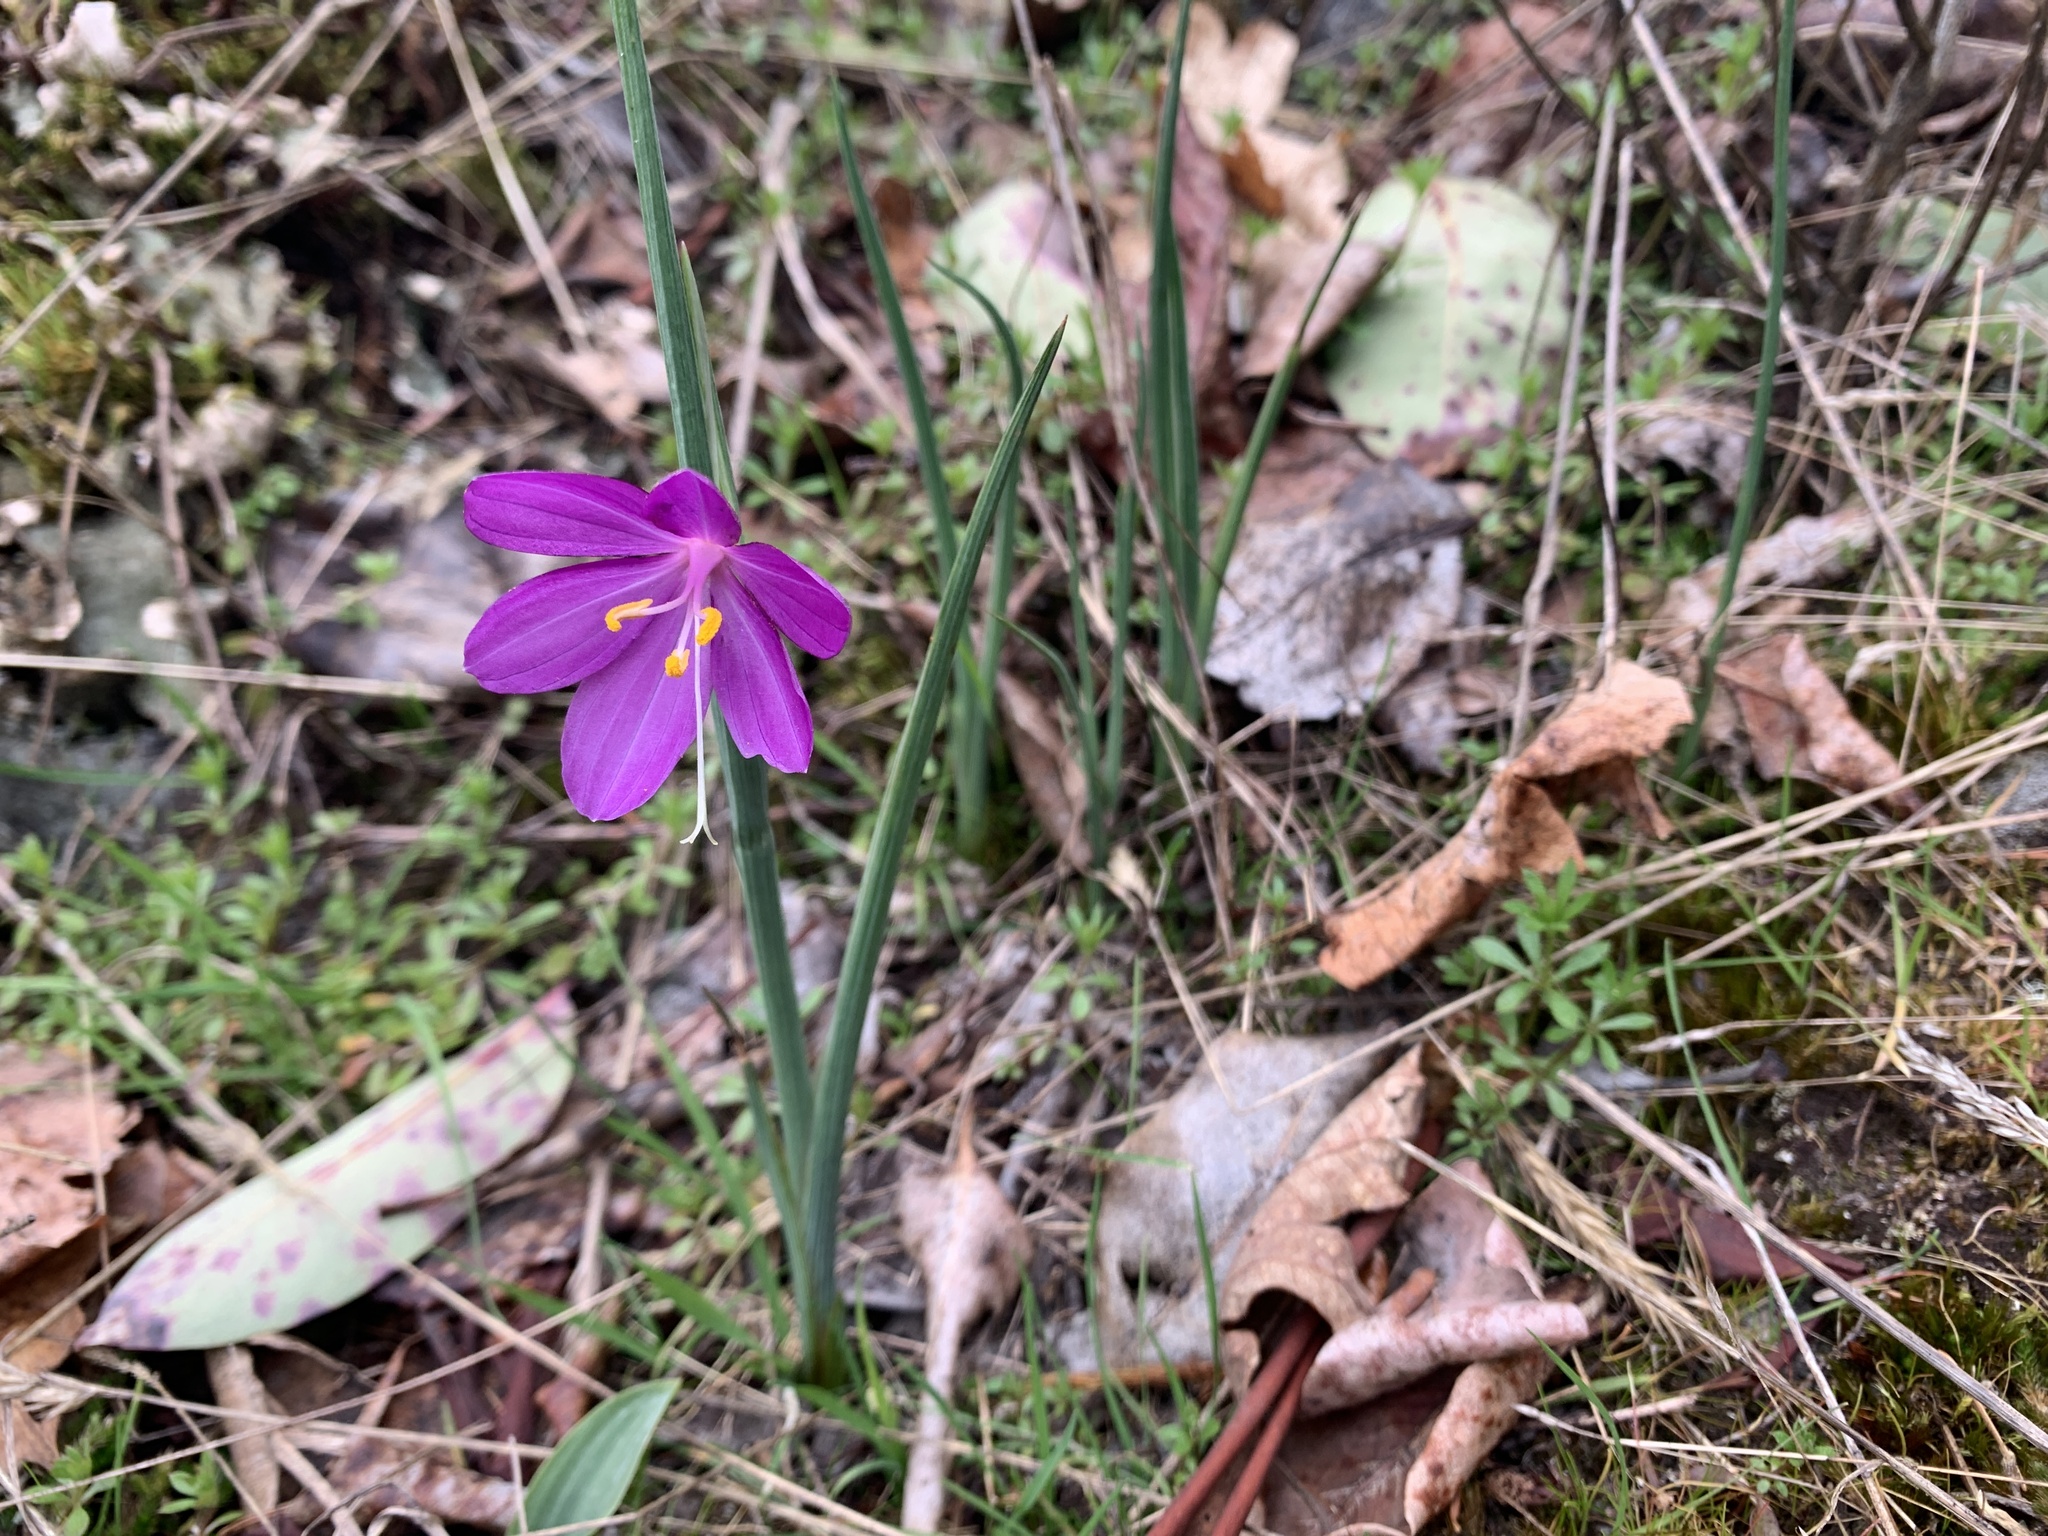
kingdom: Plantae
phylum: Tracheophyta
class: Liliopsida
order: Asparagales
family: Iridaceae
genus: Olsynium
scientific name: Olsynium douglasii
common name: Douglas' grasswidow
